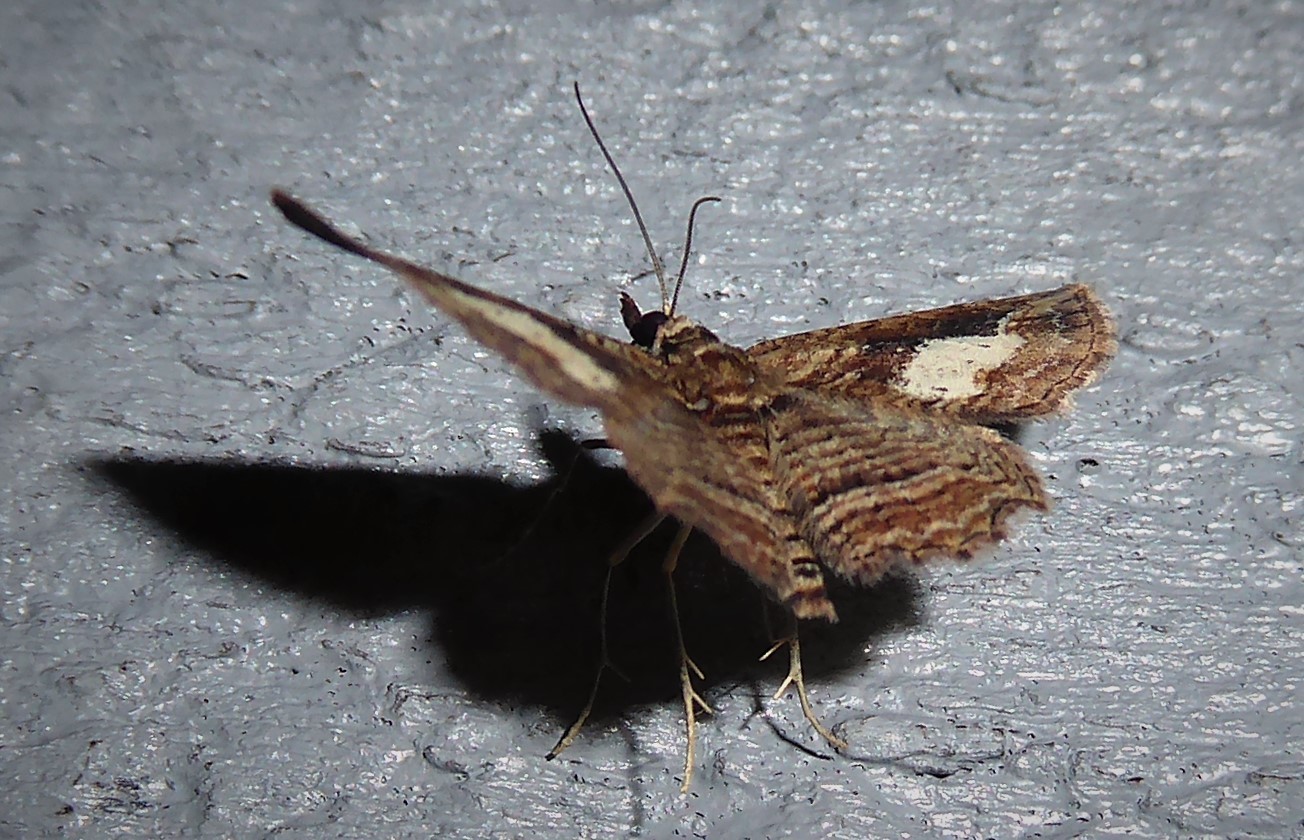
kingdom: Animalia
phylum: Arthropoda
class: Insecta
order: Lepidoptera
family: Geometridae
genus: Chloroclystis
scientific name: Chloroclystis filata
